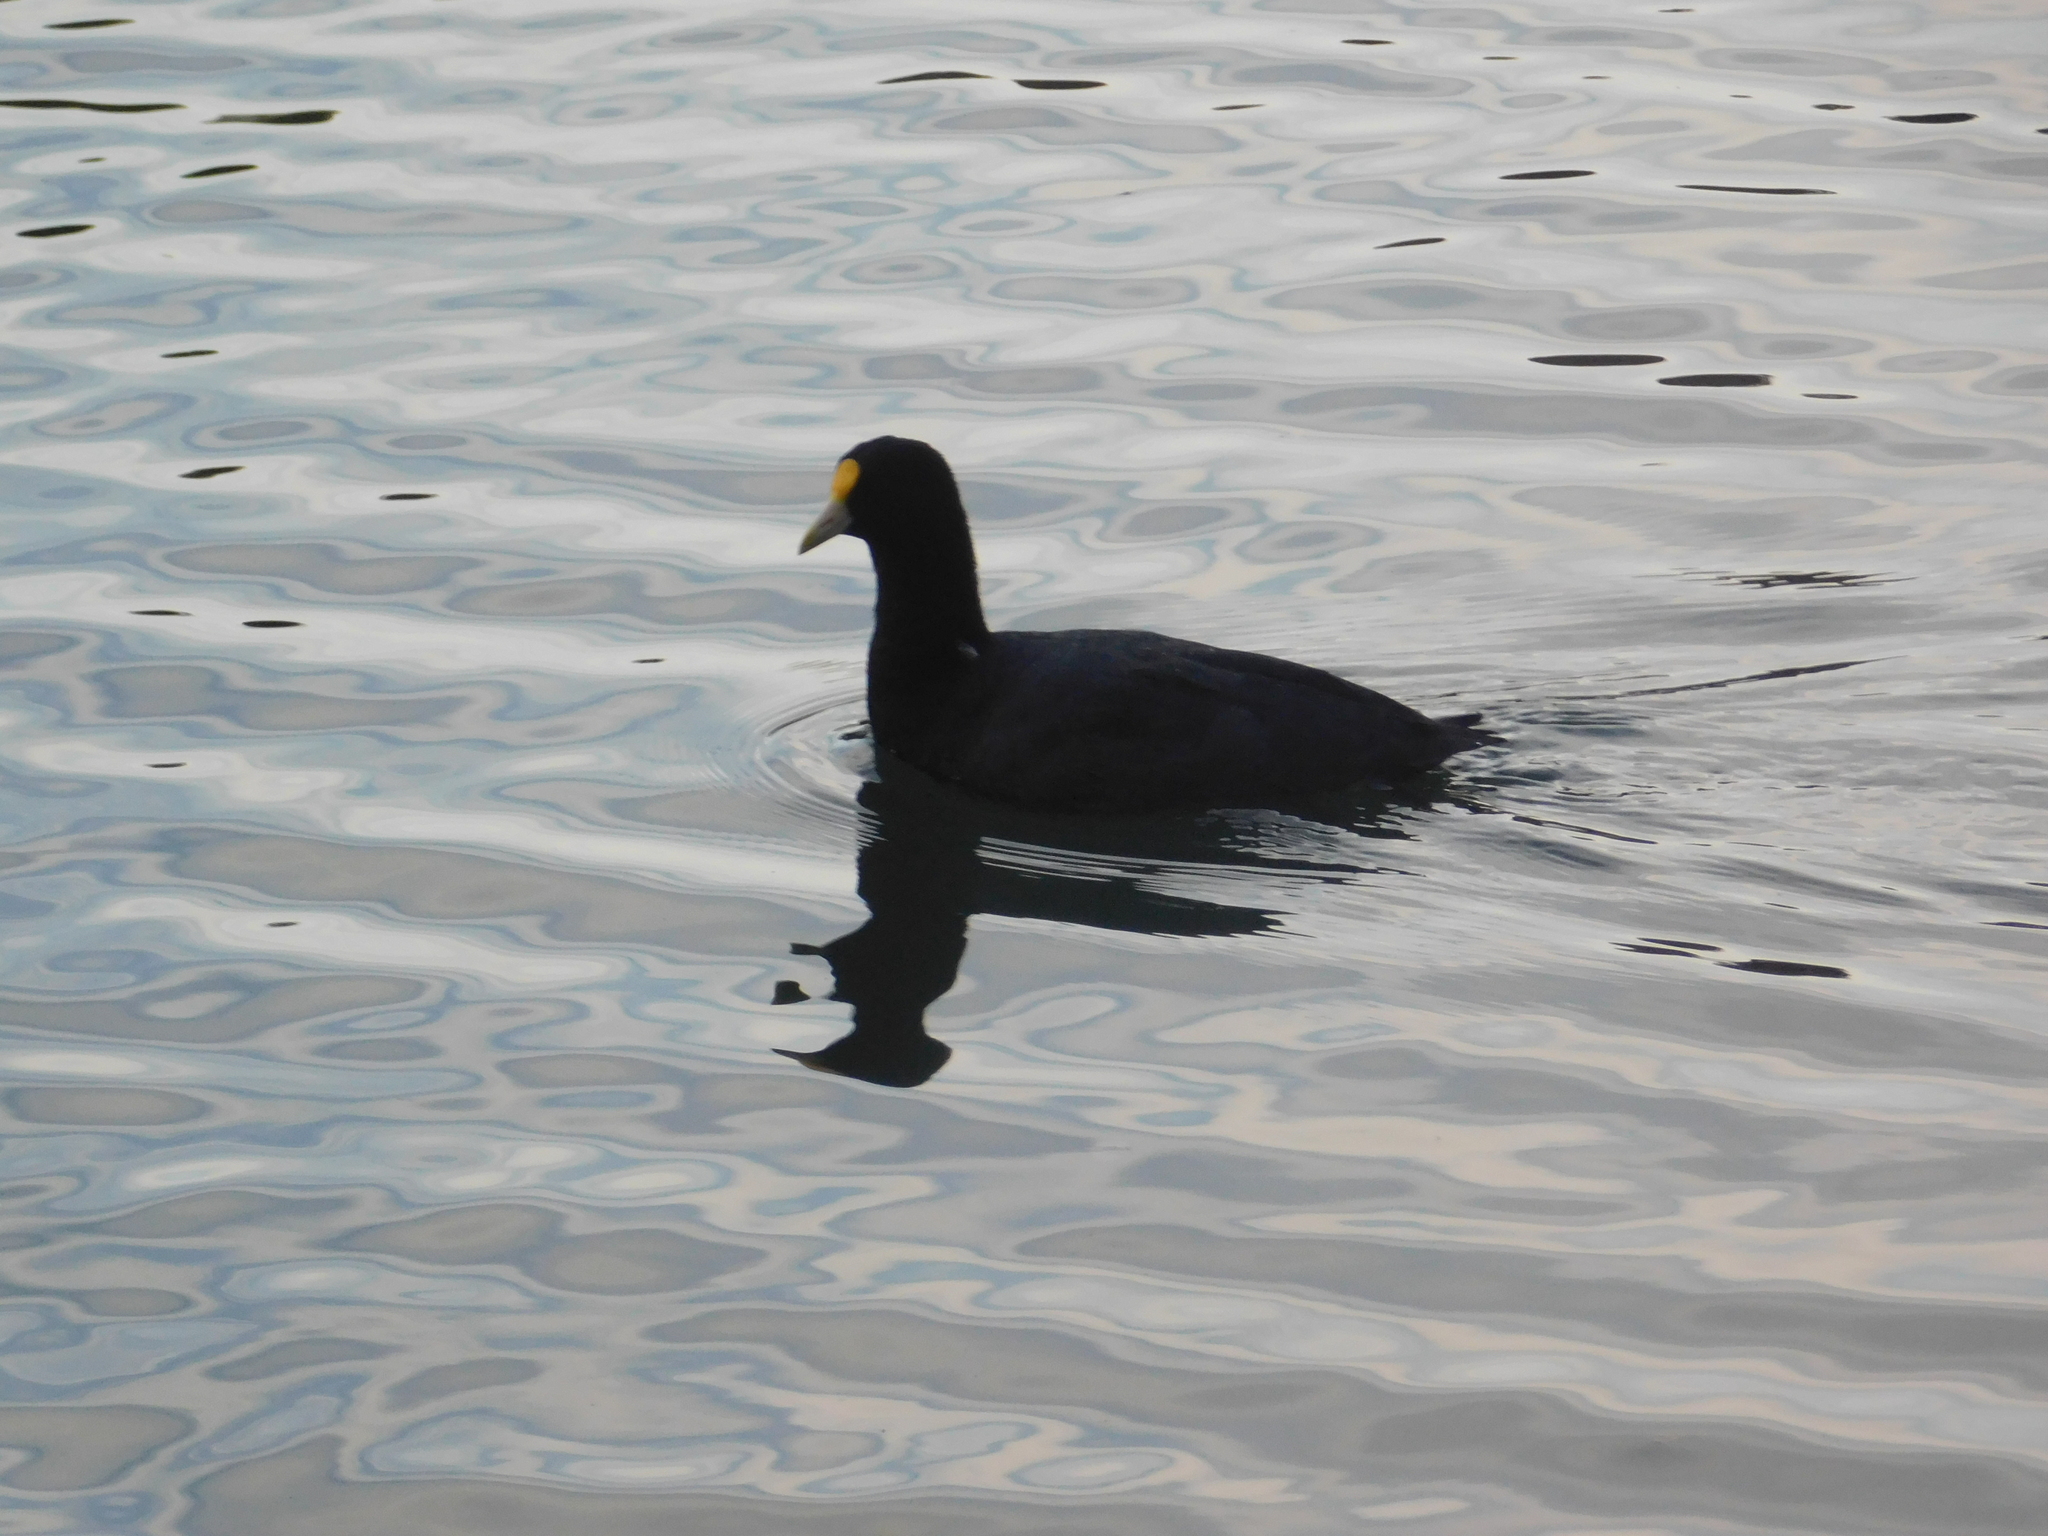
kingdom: Animalia
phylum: Chordata
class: Aves
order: Gruiformes
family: Rallidae
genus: Fulica
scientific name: Fulica leucoptera
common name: White-winged coot
